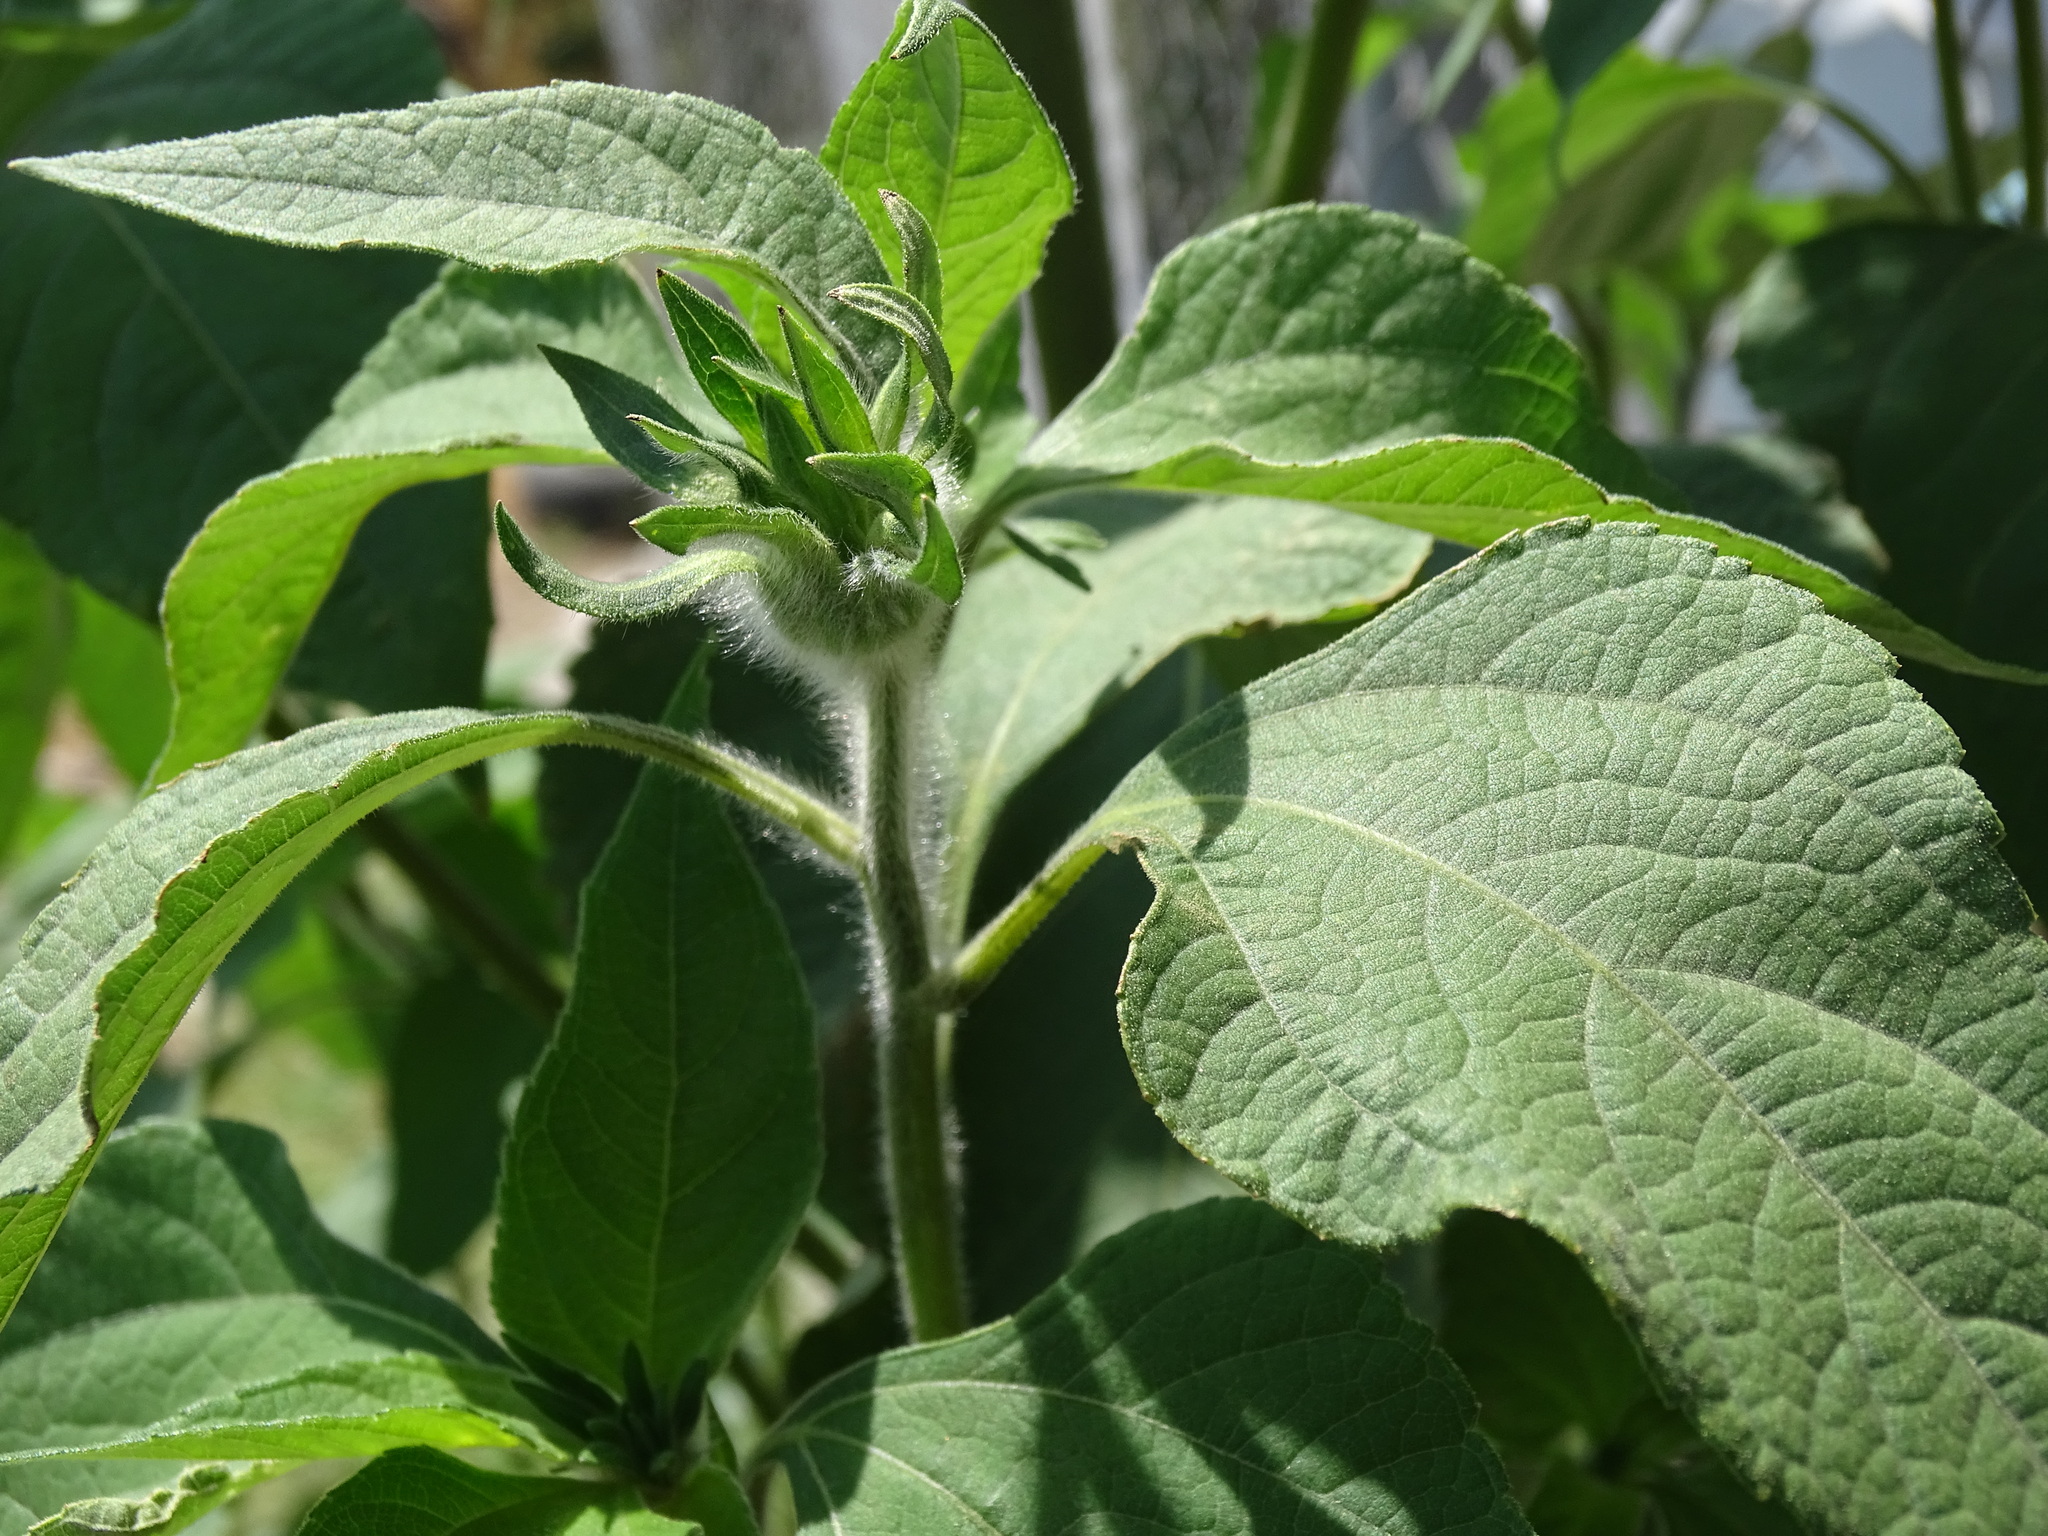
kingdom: Plantae
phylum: Tracheophyta
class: Magnoliopsida
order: Asterales
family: Asteraceae
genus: Tithonia
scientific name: Tithonia tubaeformis
